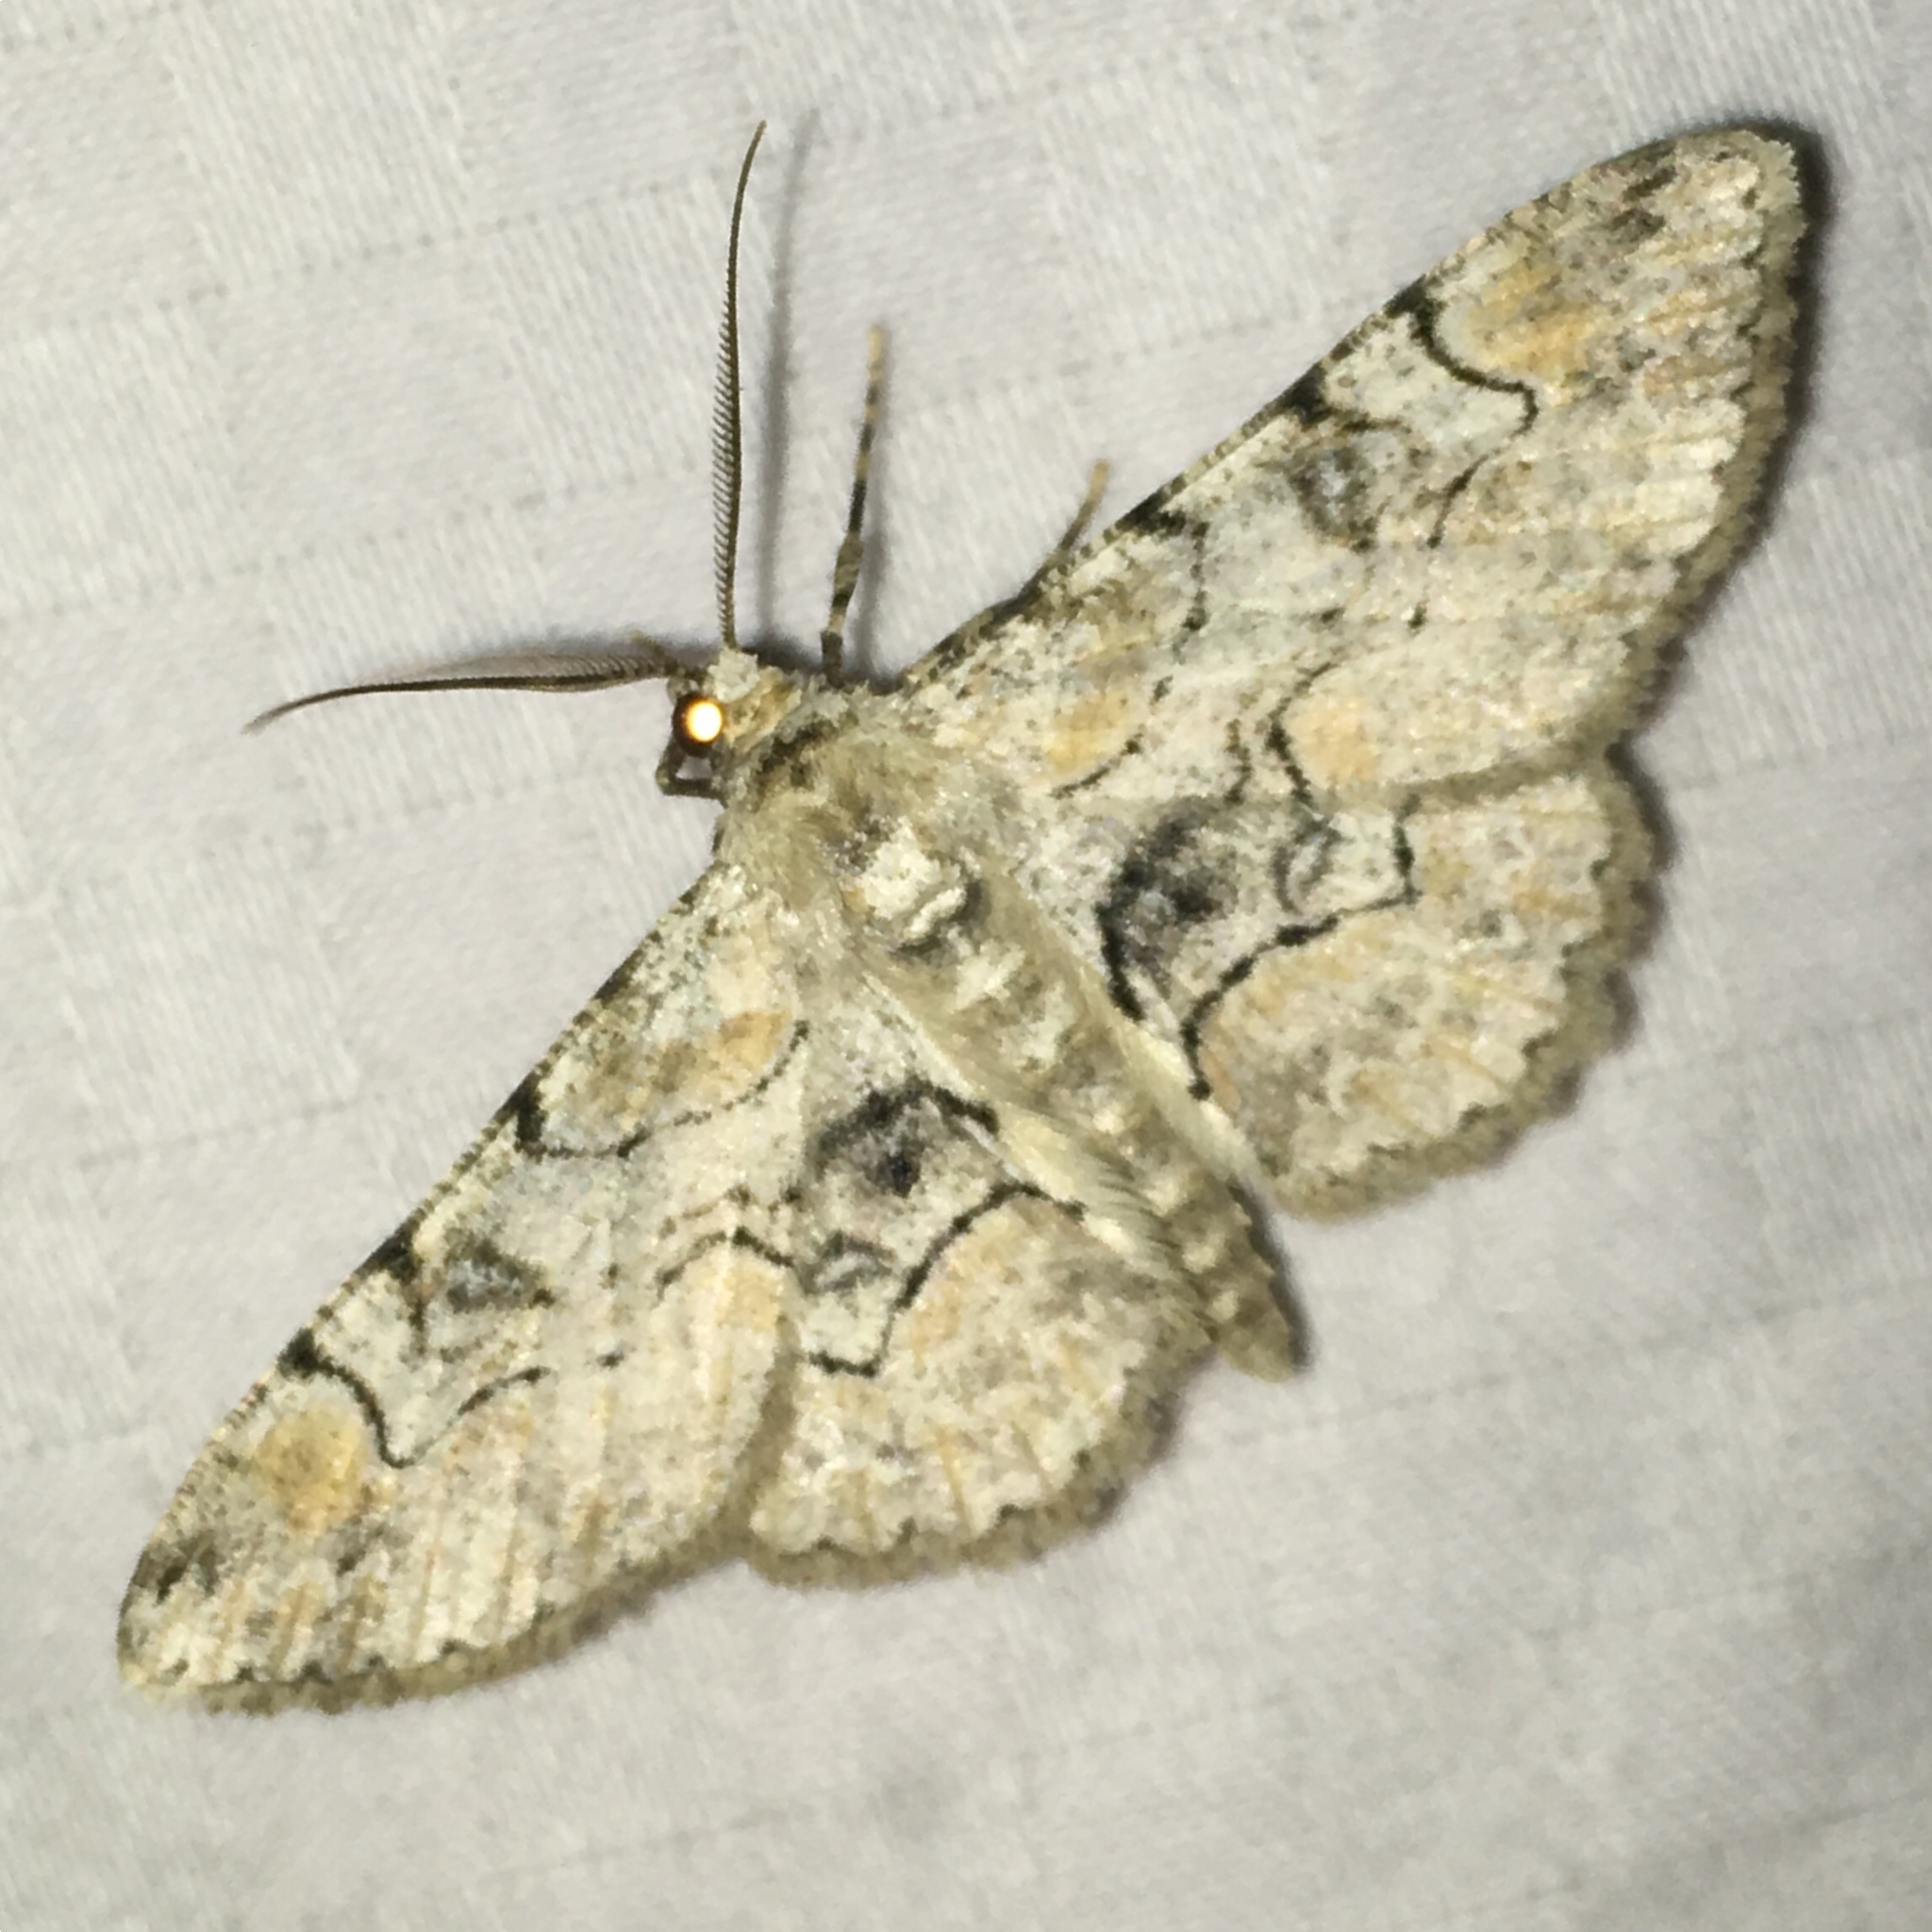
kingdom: Animalia
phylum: Arthropoda
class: Insecta
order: Lepidoptera
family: Geometridae
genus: Iridopsis
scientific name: Iridopsis larvaria
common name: Bent-line gray
